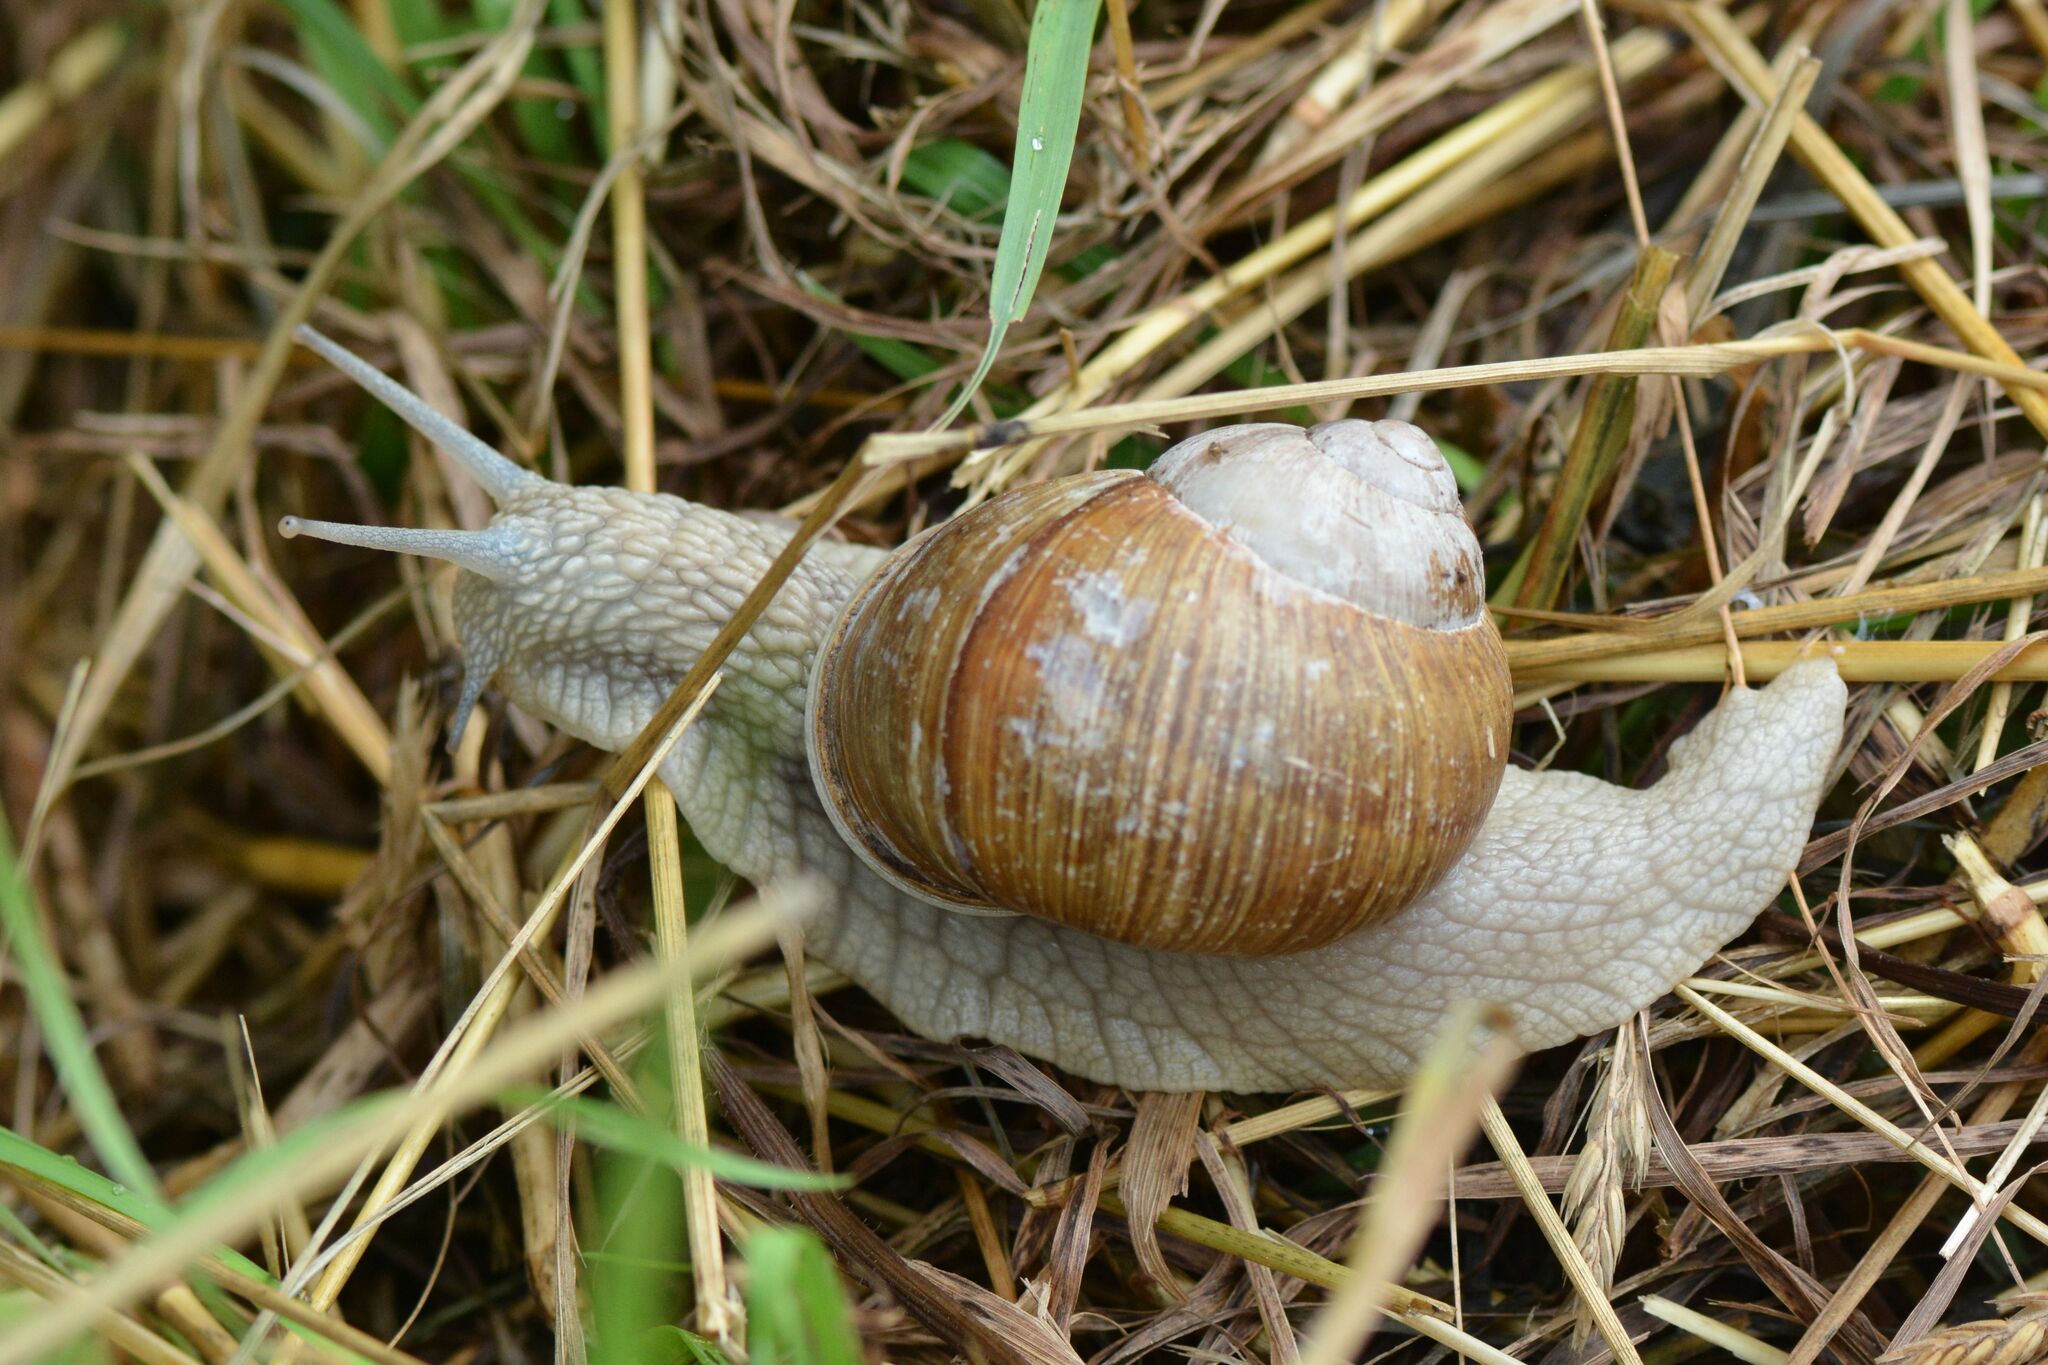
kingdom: Animalia
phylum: Mollusca
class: Gastropoda
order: Stylommatophora
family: Helicidae
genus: Helix
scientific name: Helix pomatia
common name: Roman snail
